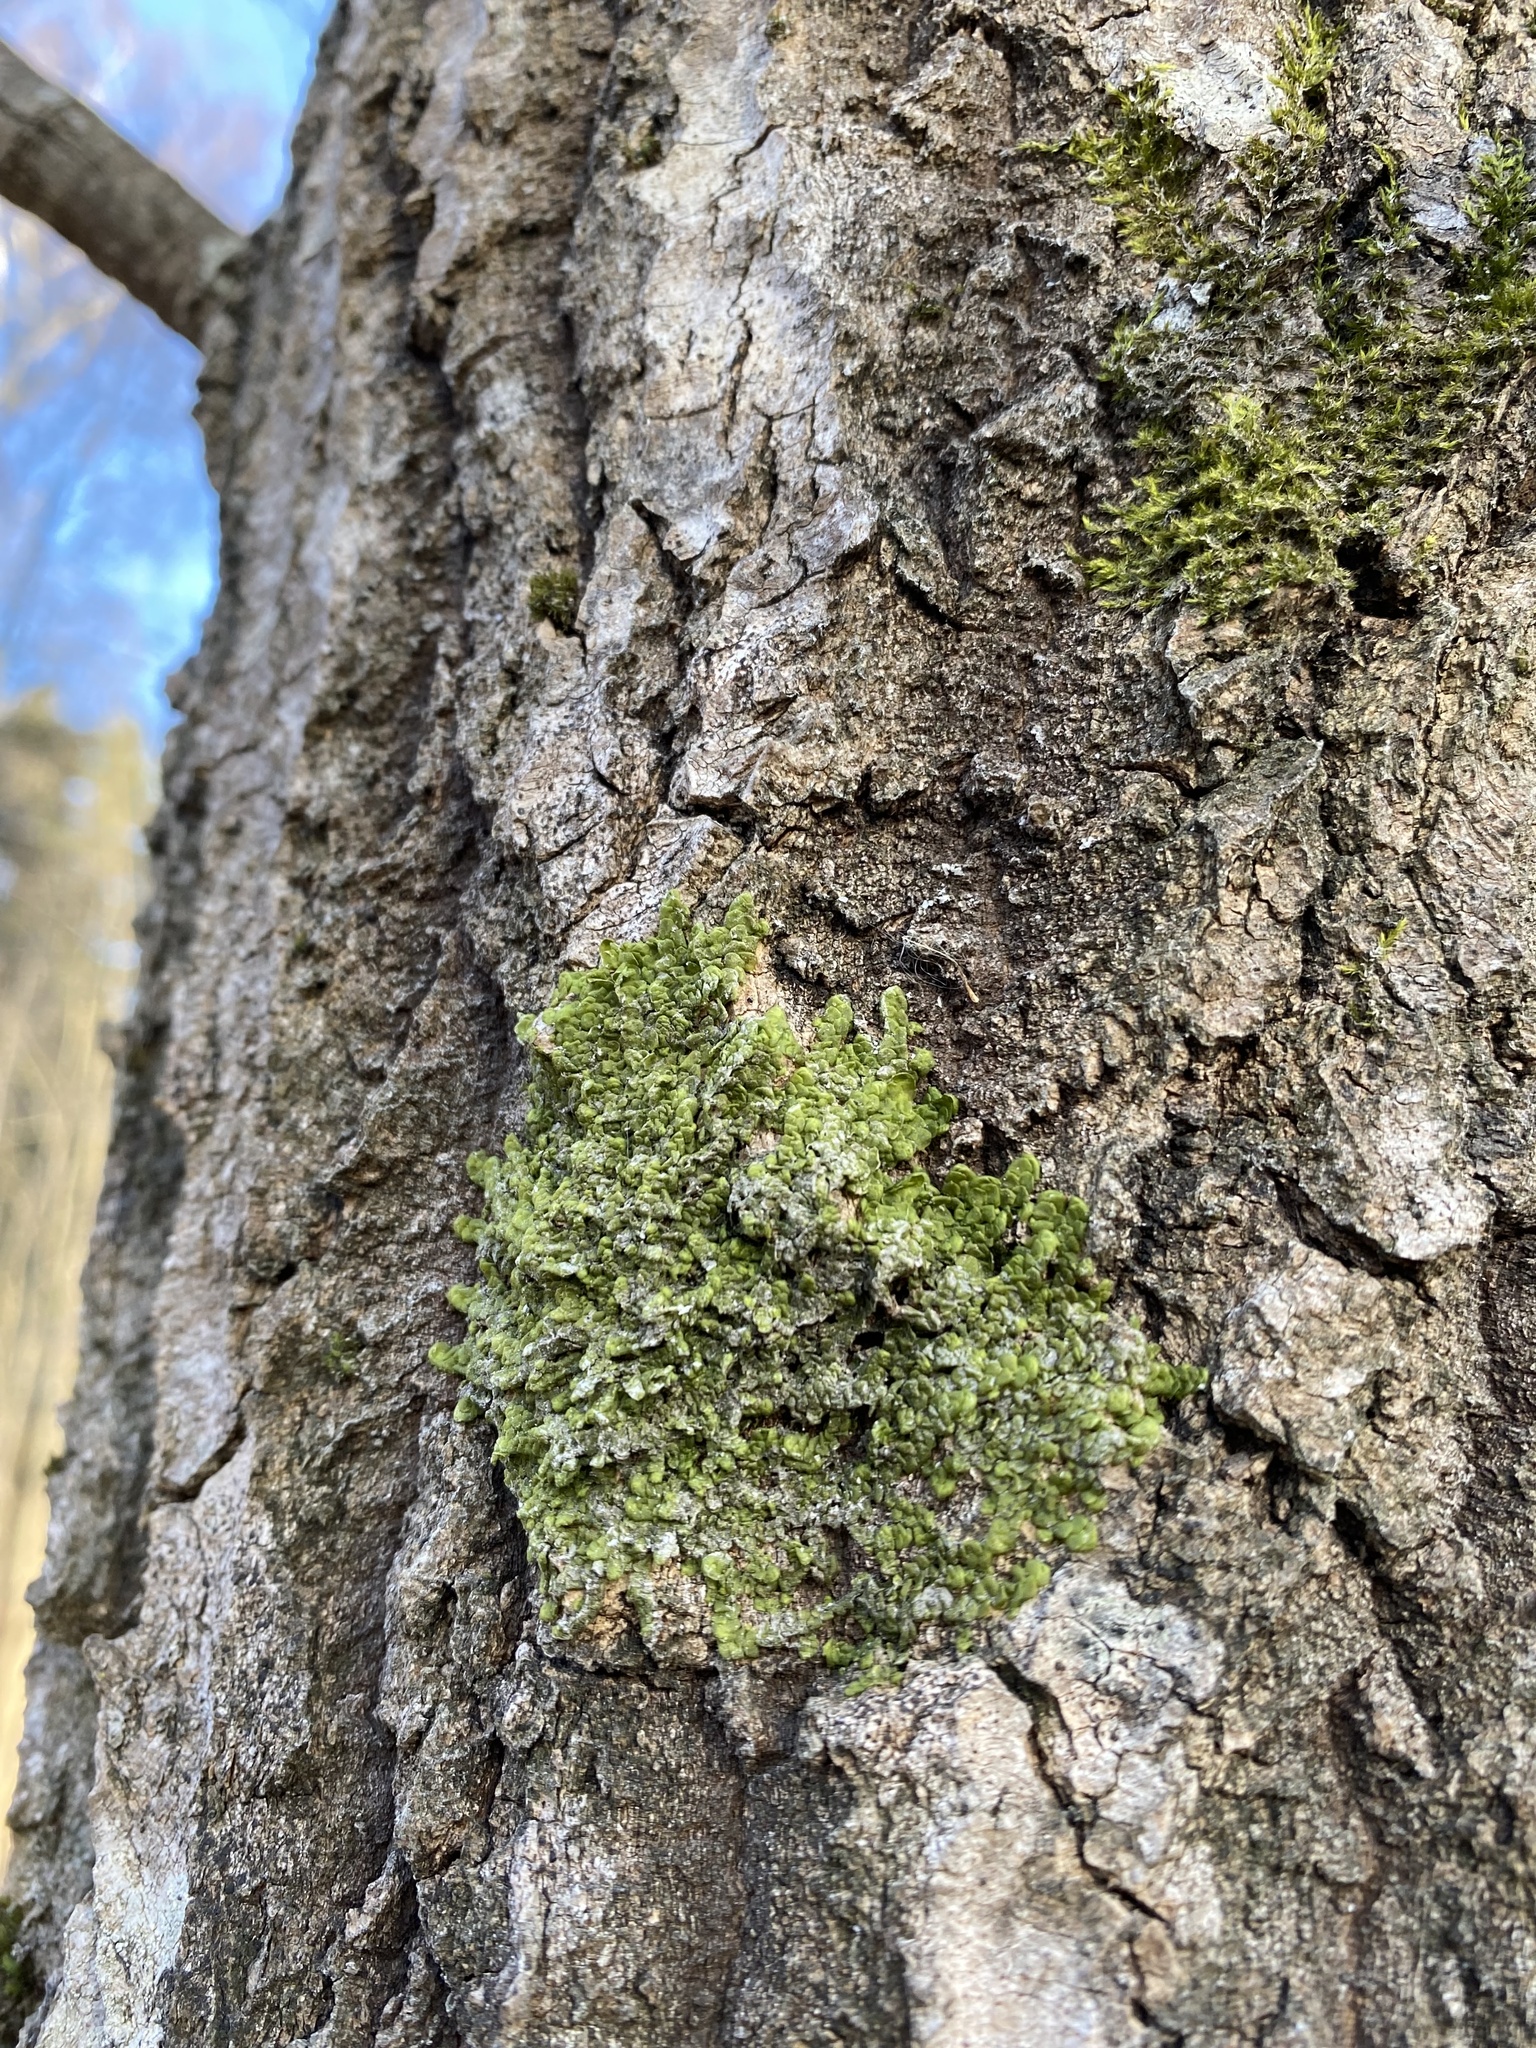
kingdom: Plantae
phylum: Marchantiophyta
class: Jungermanniopsida
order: Porellales
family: Radulaceae
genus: Radula
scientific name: Radula complanata
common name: Flat-leaved scalewort
